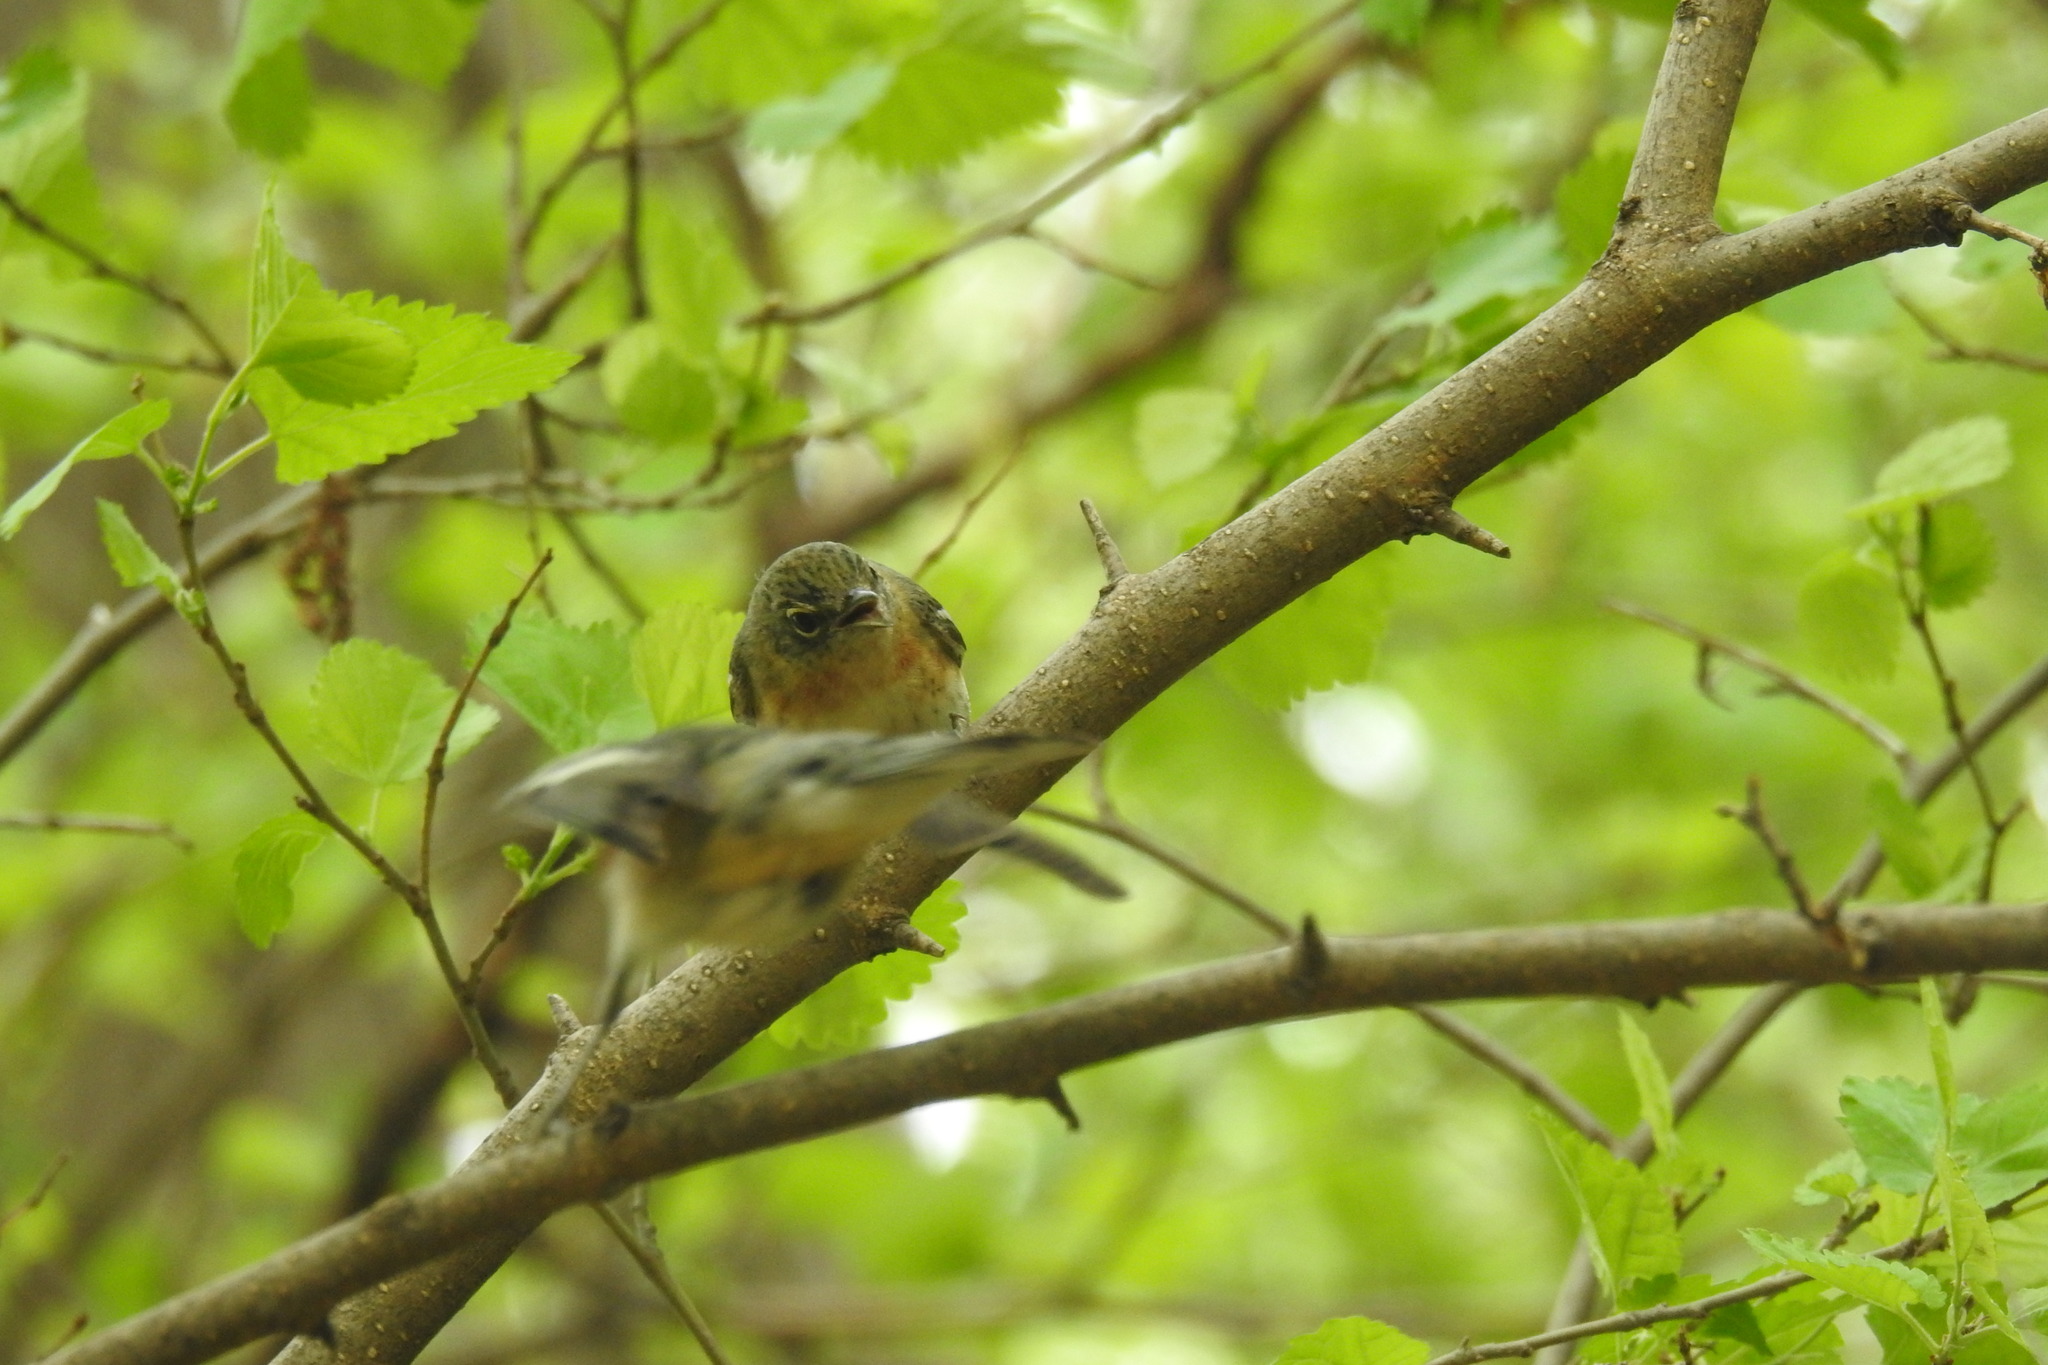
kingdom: Animalia
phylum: Chordata
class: Aves
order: Passeriformes
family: Parulidae
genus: Setophaga
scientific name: Setophaga castanea
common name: Bay-breasted warbler
